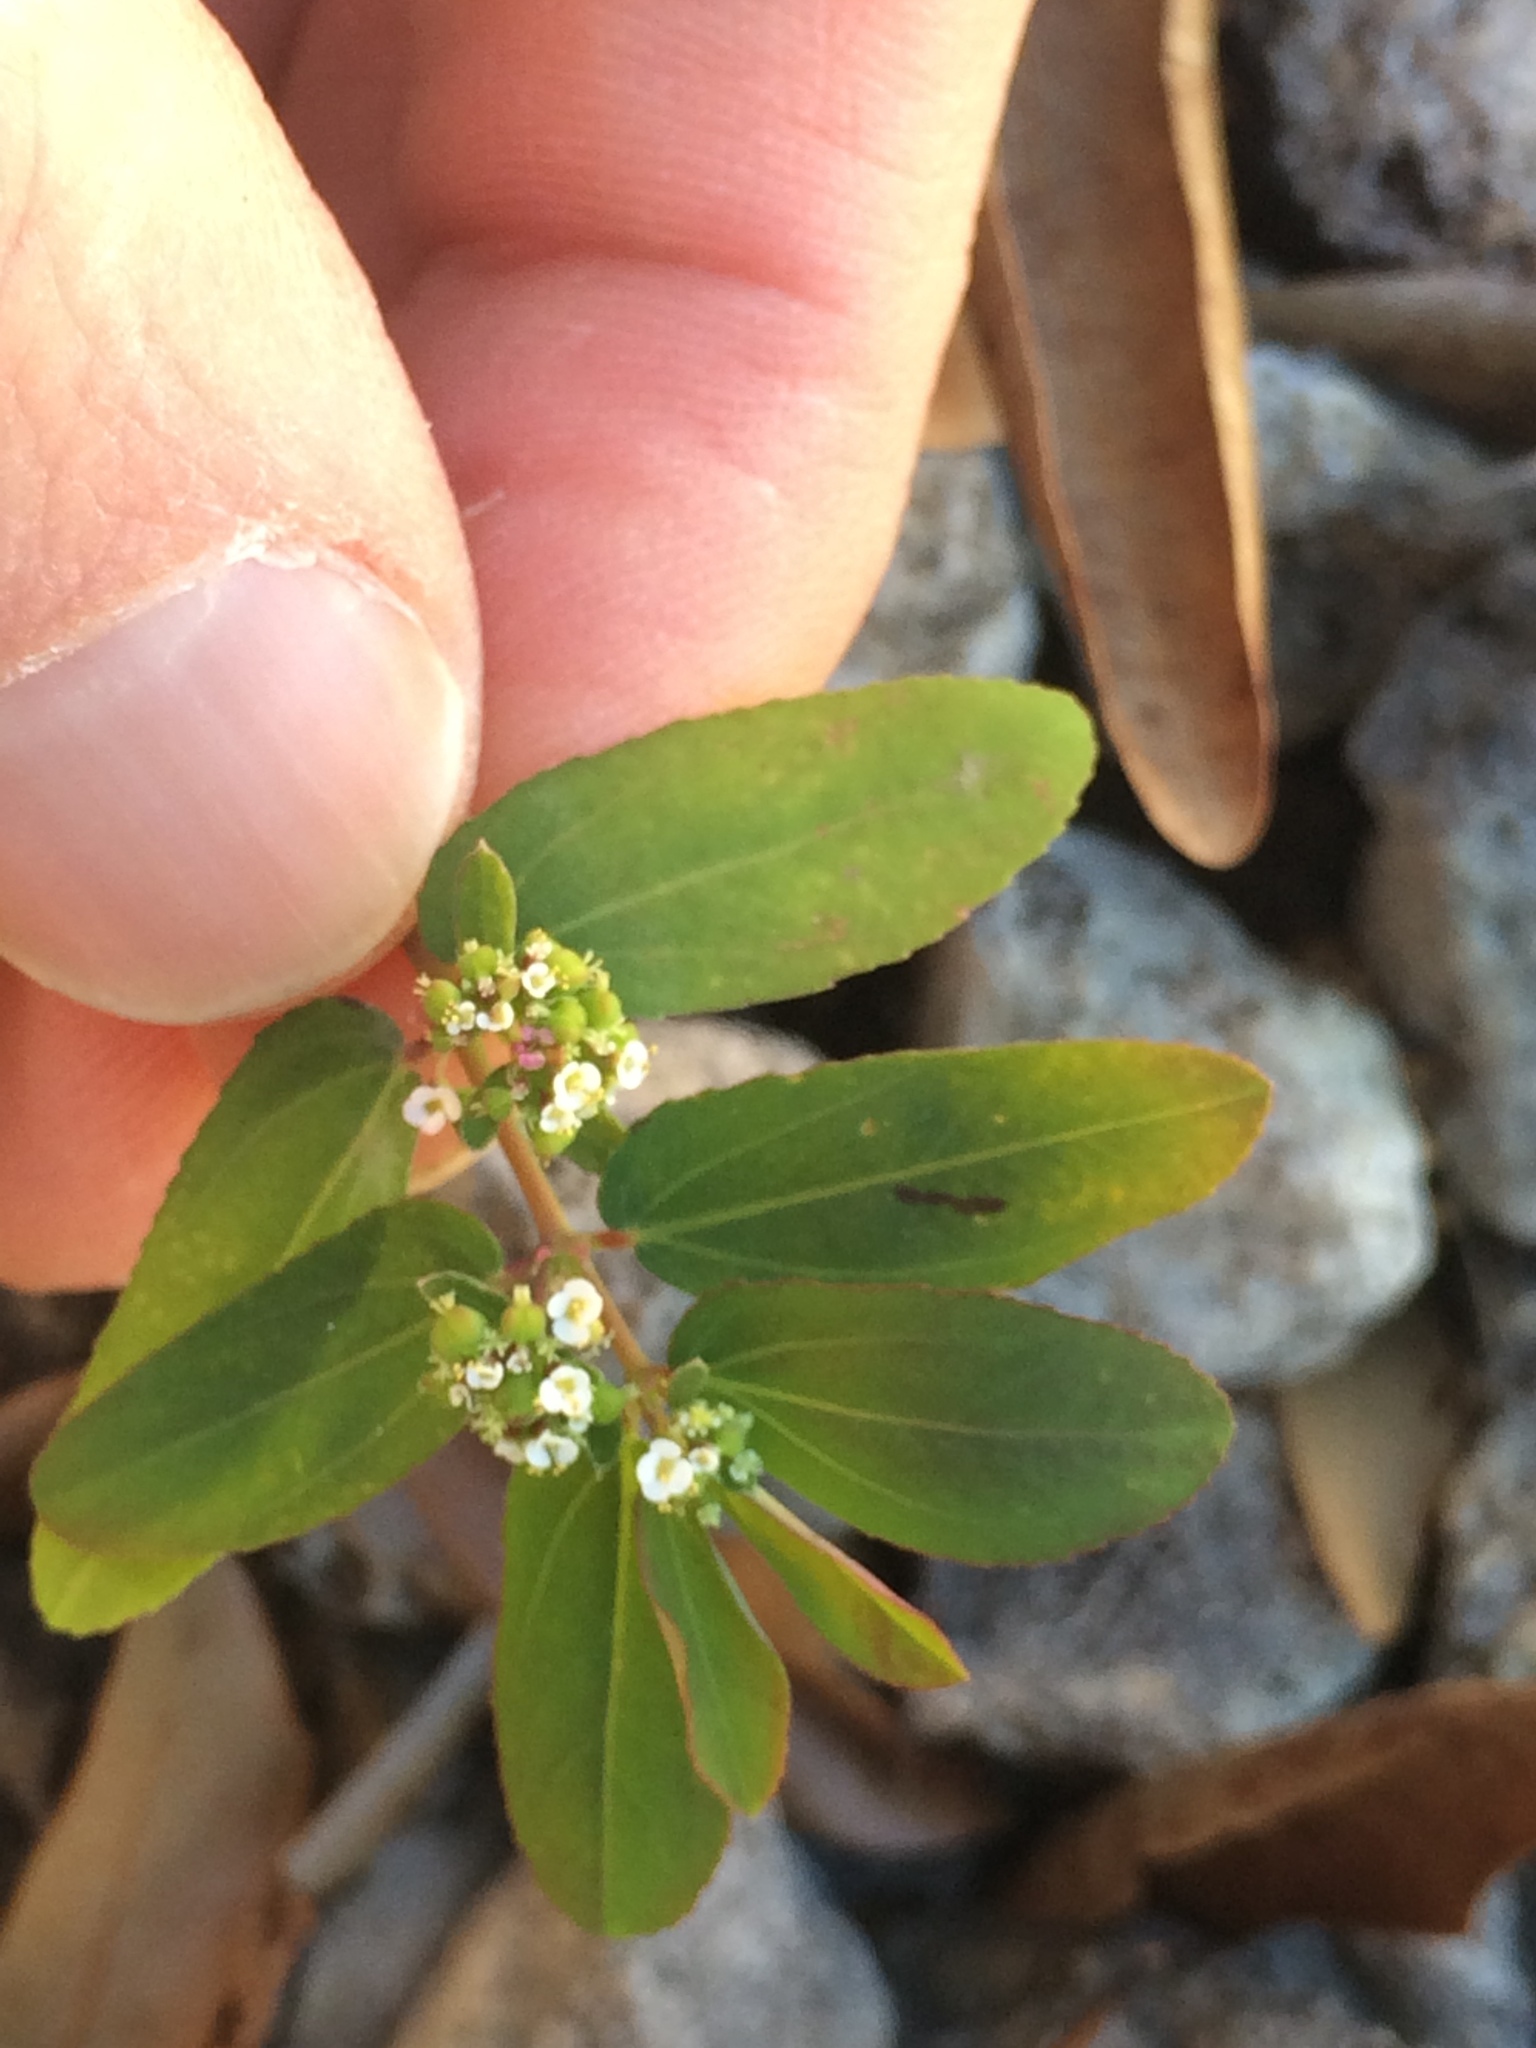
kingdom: Plantae
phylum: Tracheophyta
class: Magnoliopsida
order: Malpighiales
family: Euphorbiaceae
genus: Euphorbia
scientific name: Euphorbia hypericifolia
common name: Graceful sandmat
